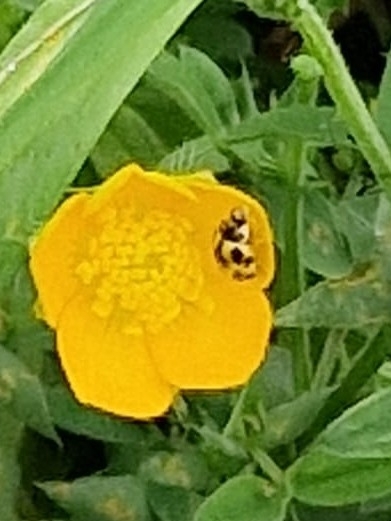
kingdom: Animalia
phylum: Arthropoda
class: Insecta
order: Coleoptera
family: Coccinellidae
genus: Propylaea
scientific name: Propylaea quatuordecimpunctata
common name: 14-spotted ladybird beetle
